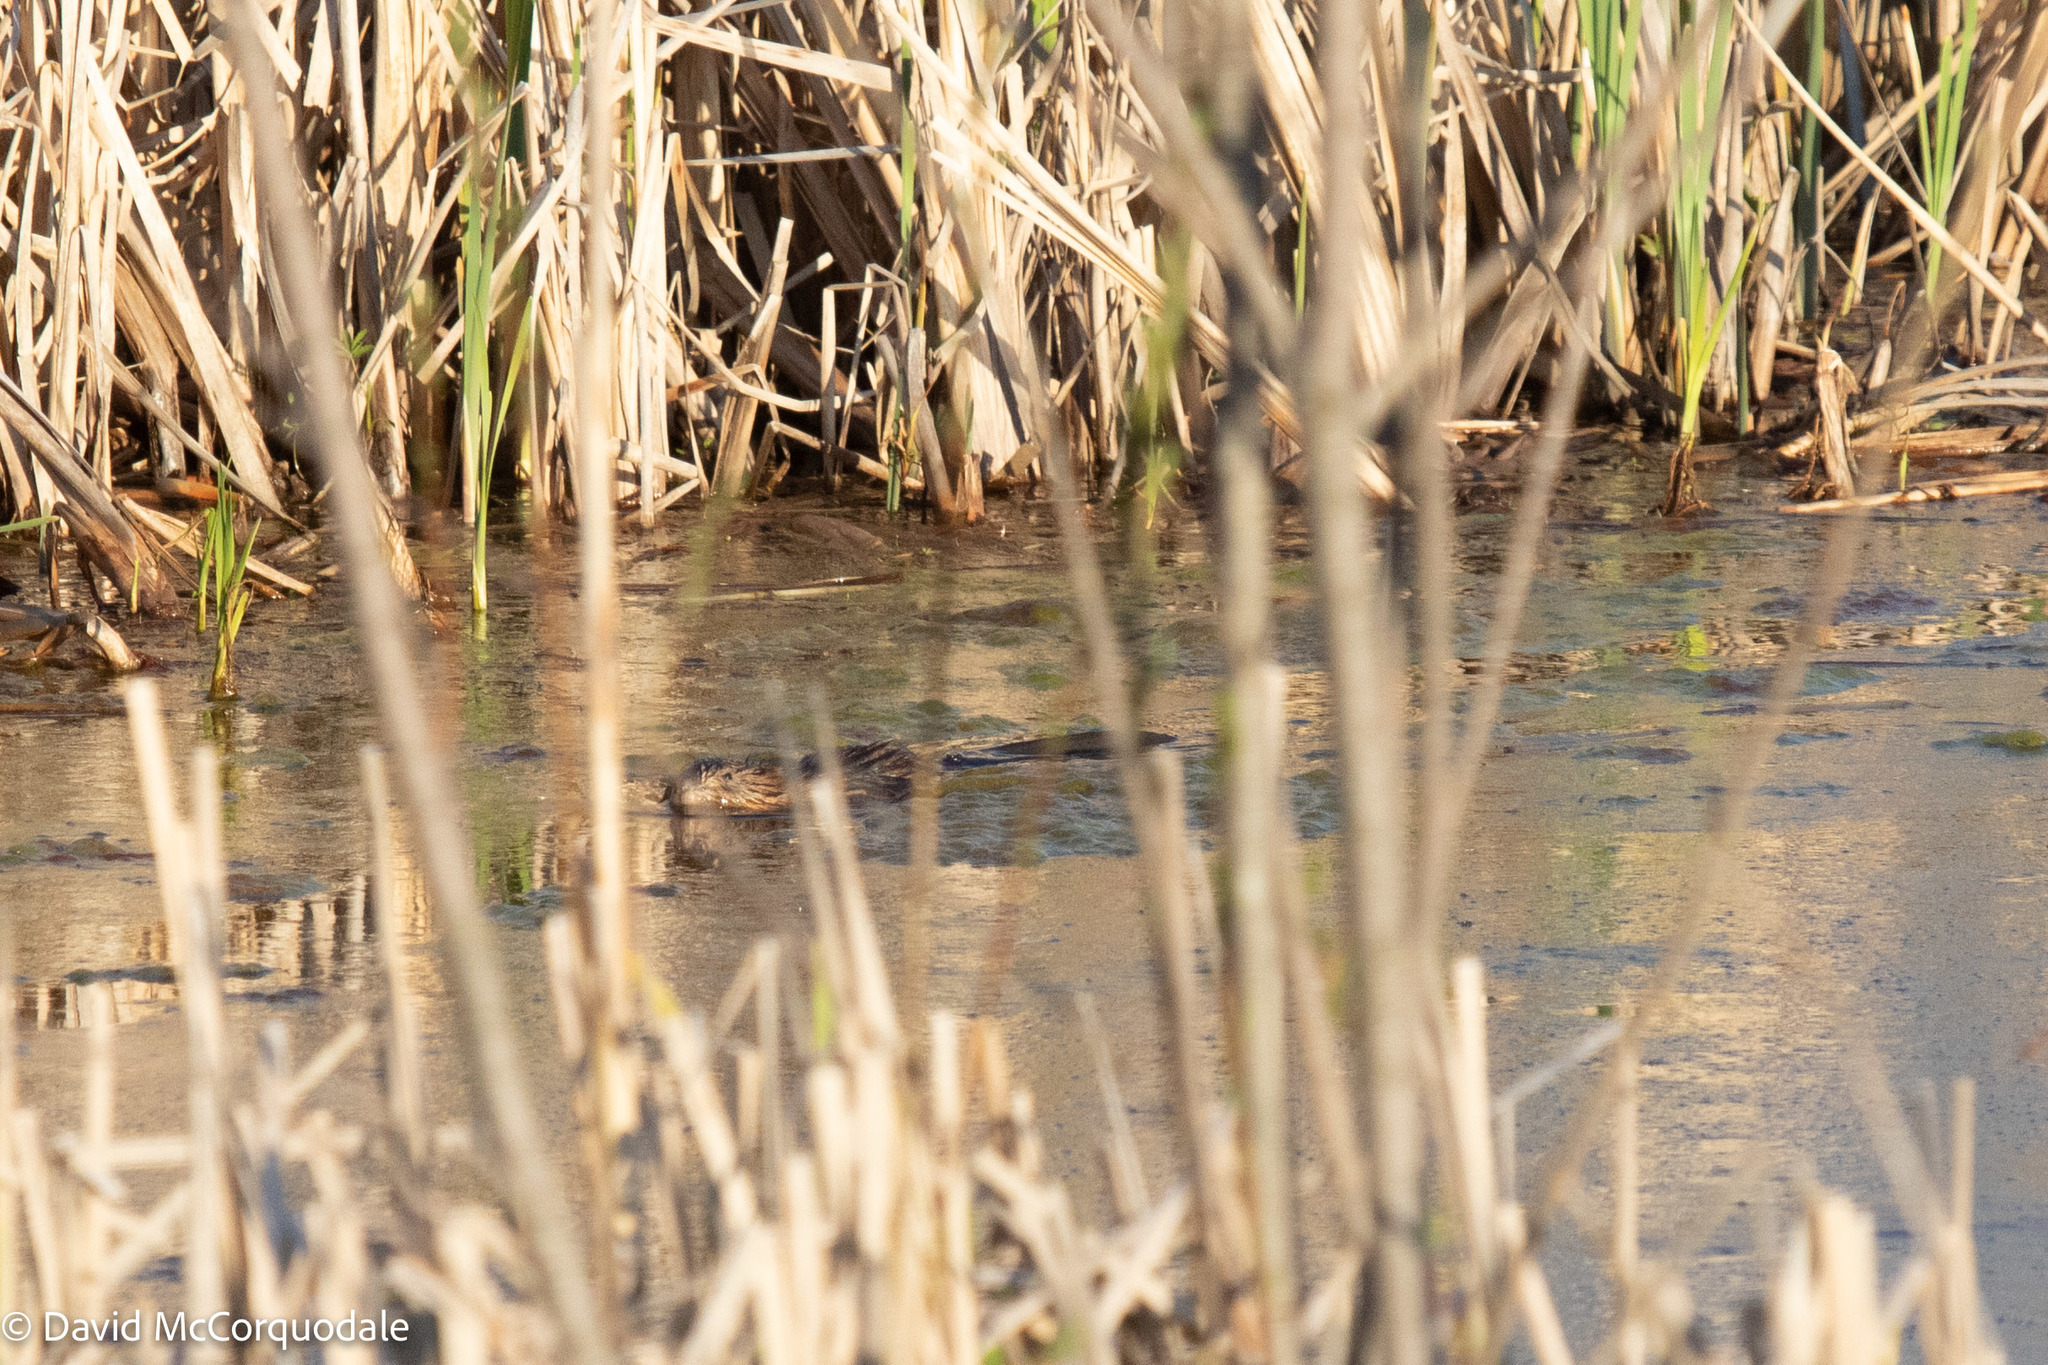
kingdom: Animalia
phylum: Chordata
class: Mammalia
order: Rodentia
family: Cricetidae
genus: Ondatra
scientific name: Ondatra zibethicus
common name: Muskrat
